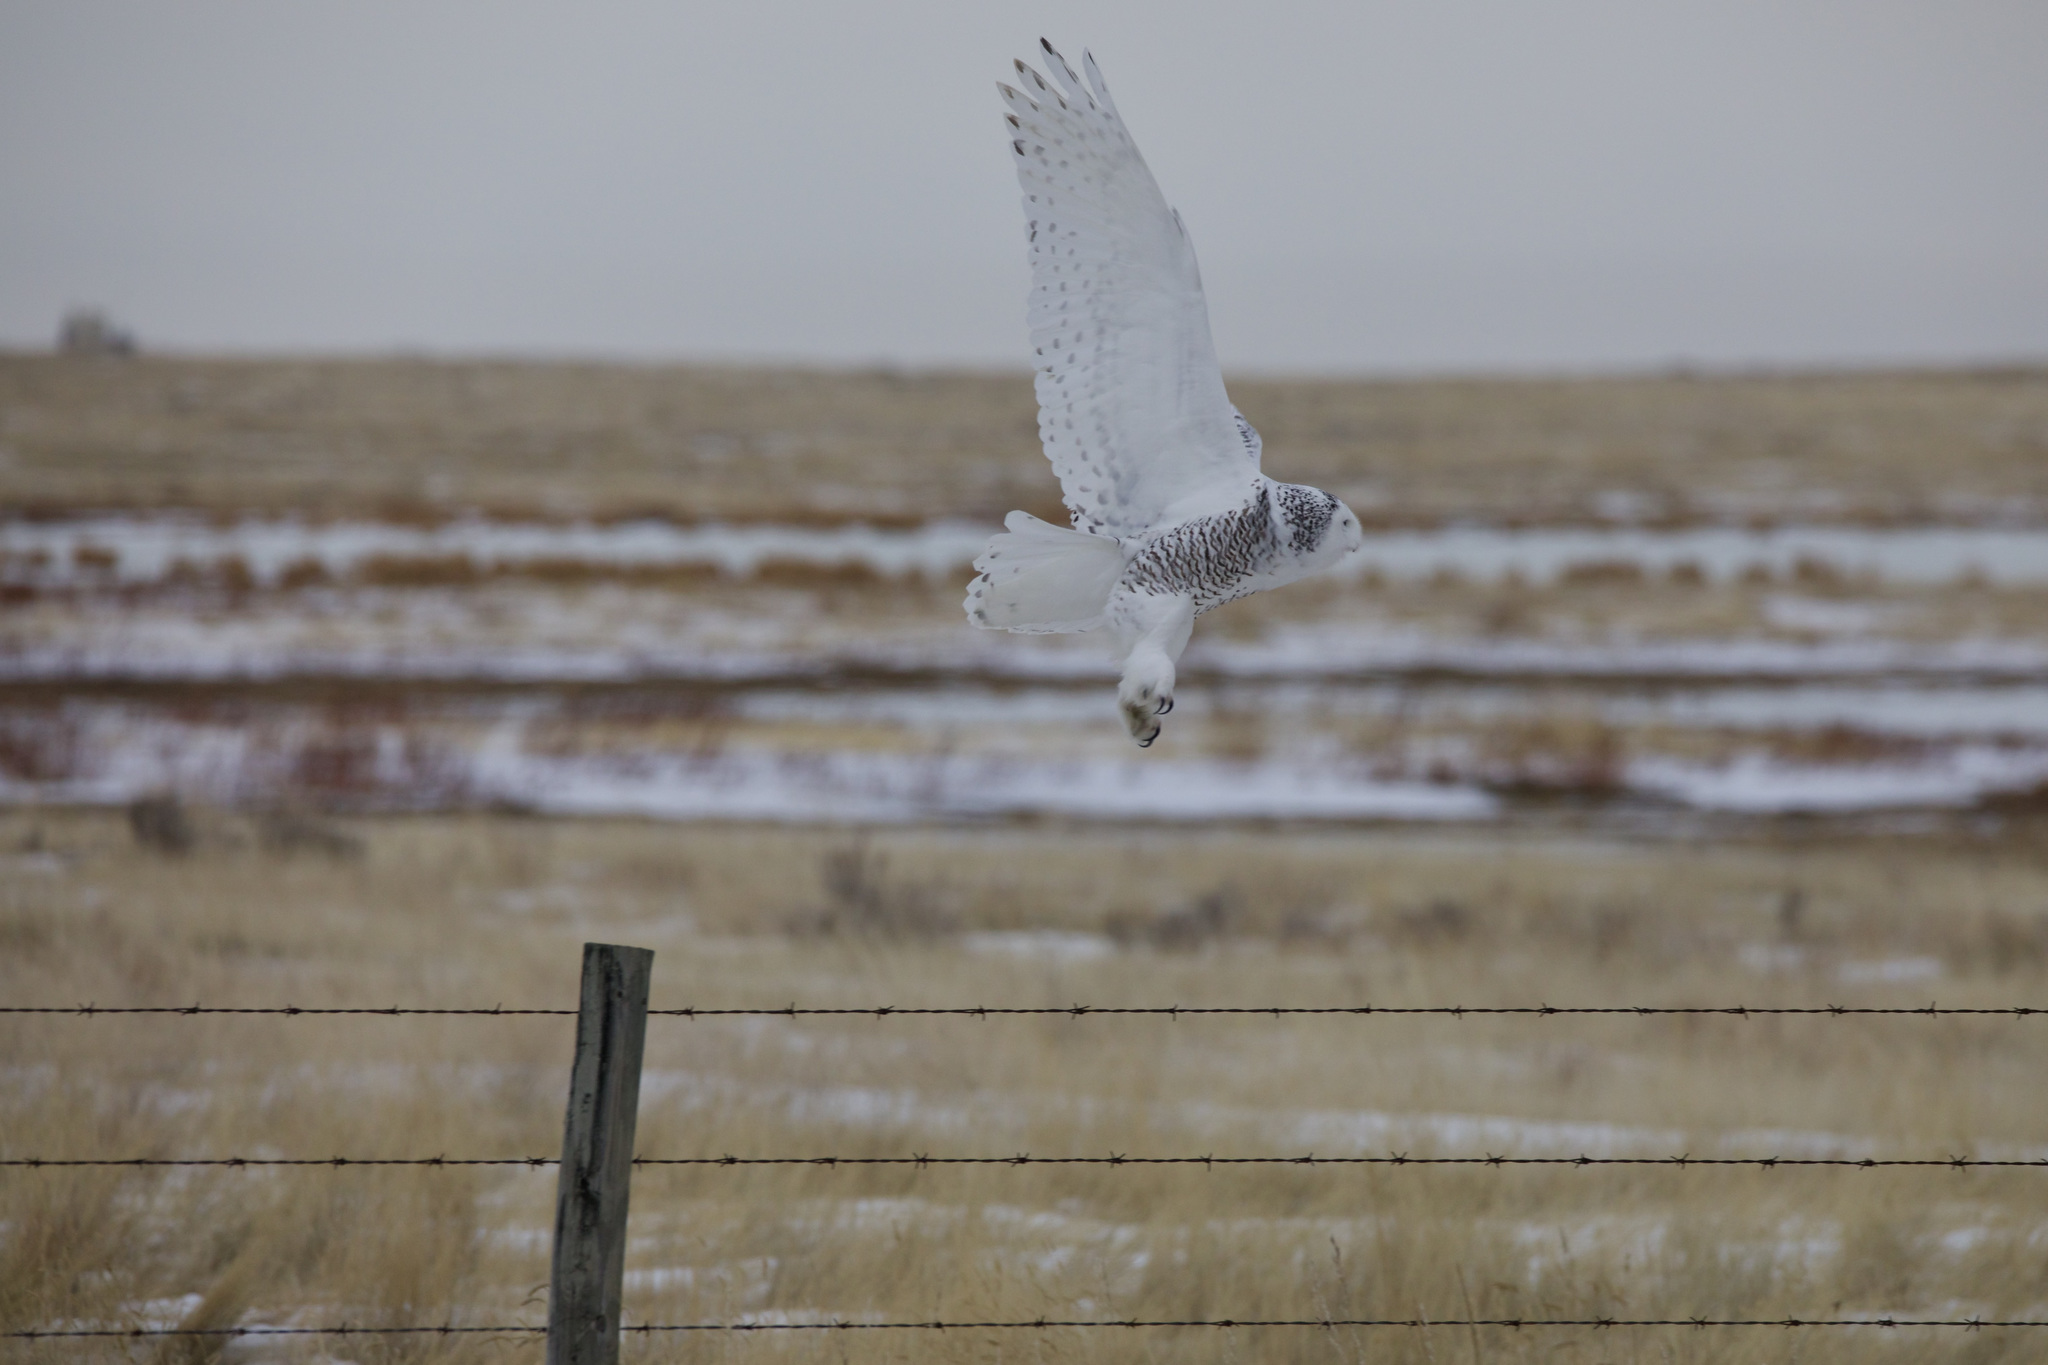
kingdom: Animalia
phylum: Chordata
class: Aves
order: Strigiformes
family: Strigidae
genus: Bubo
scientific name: Bubo scandiacus
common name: Snowy owl
